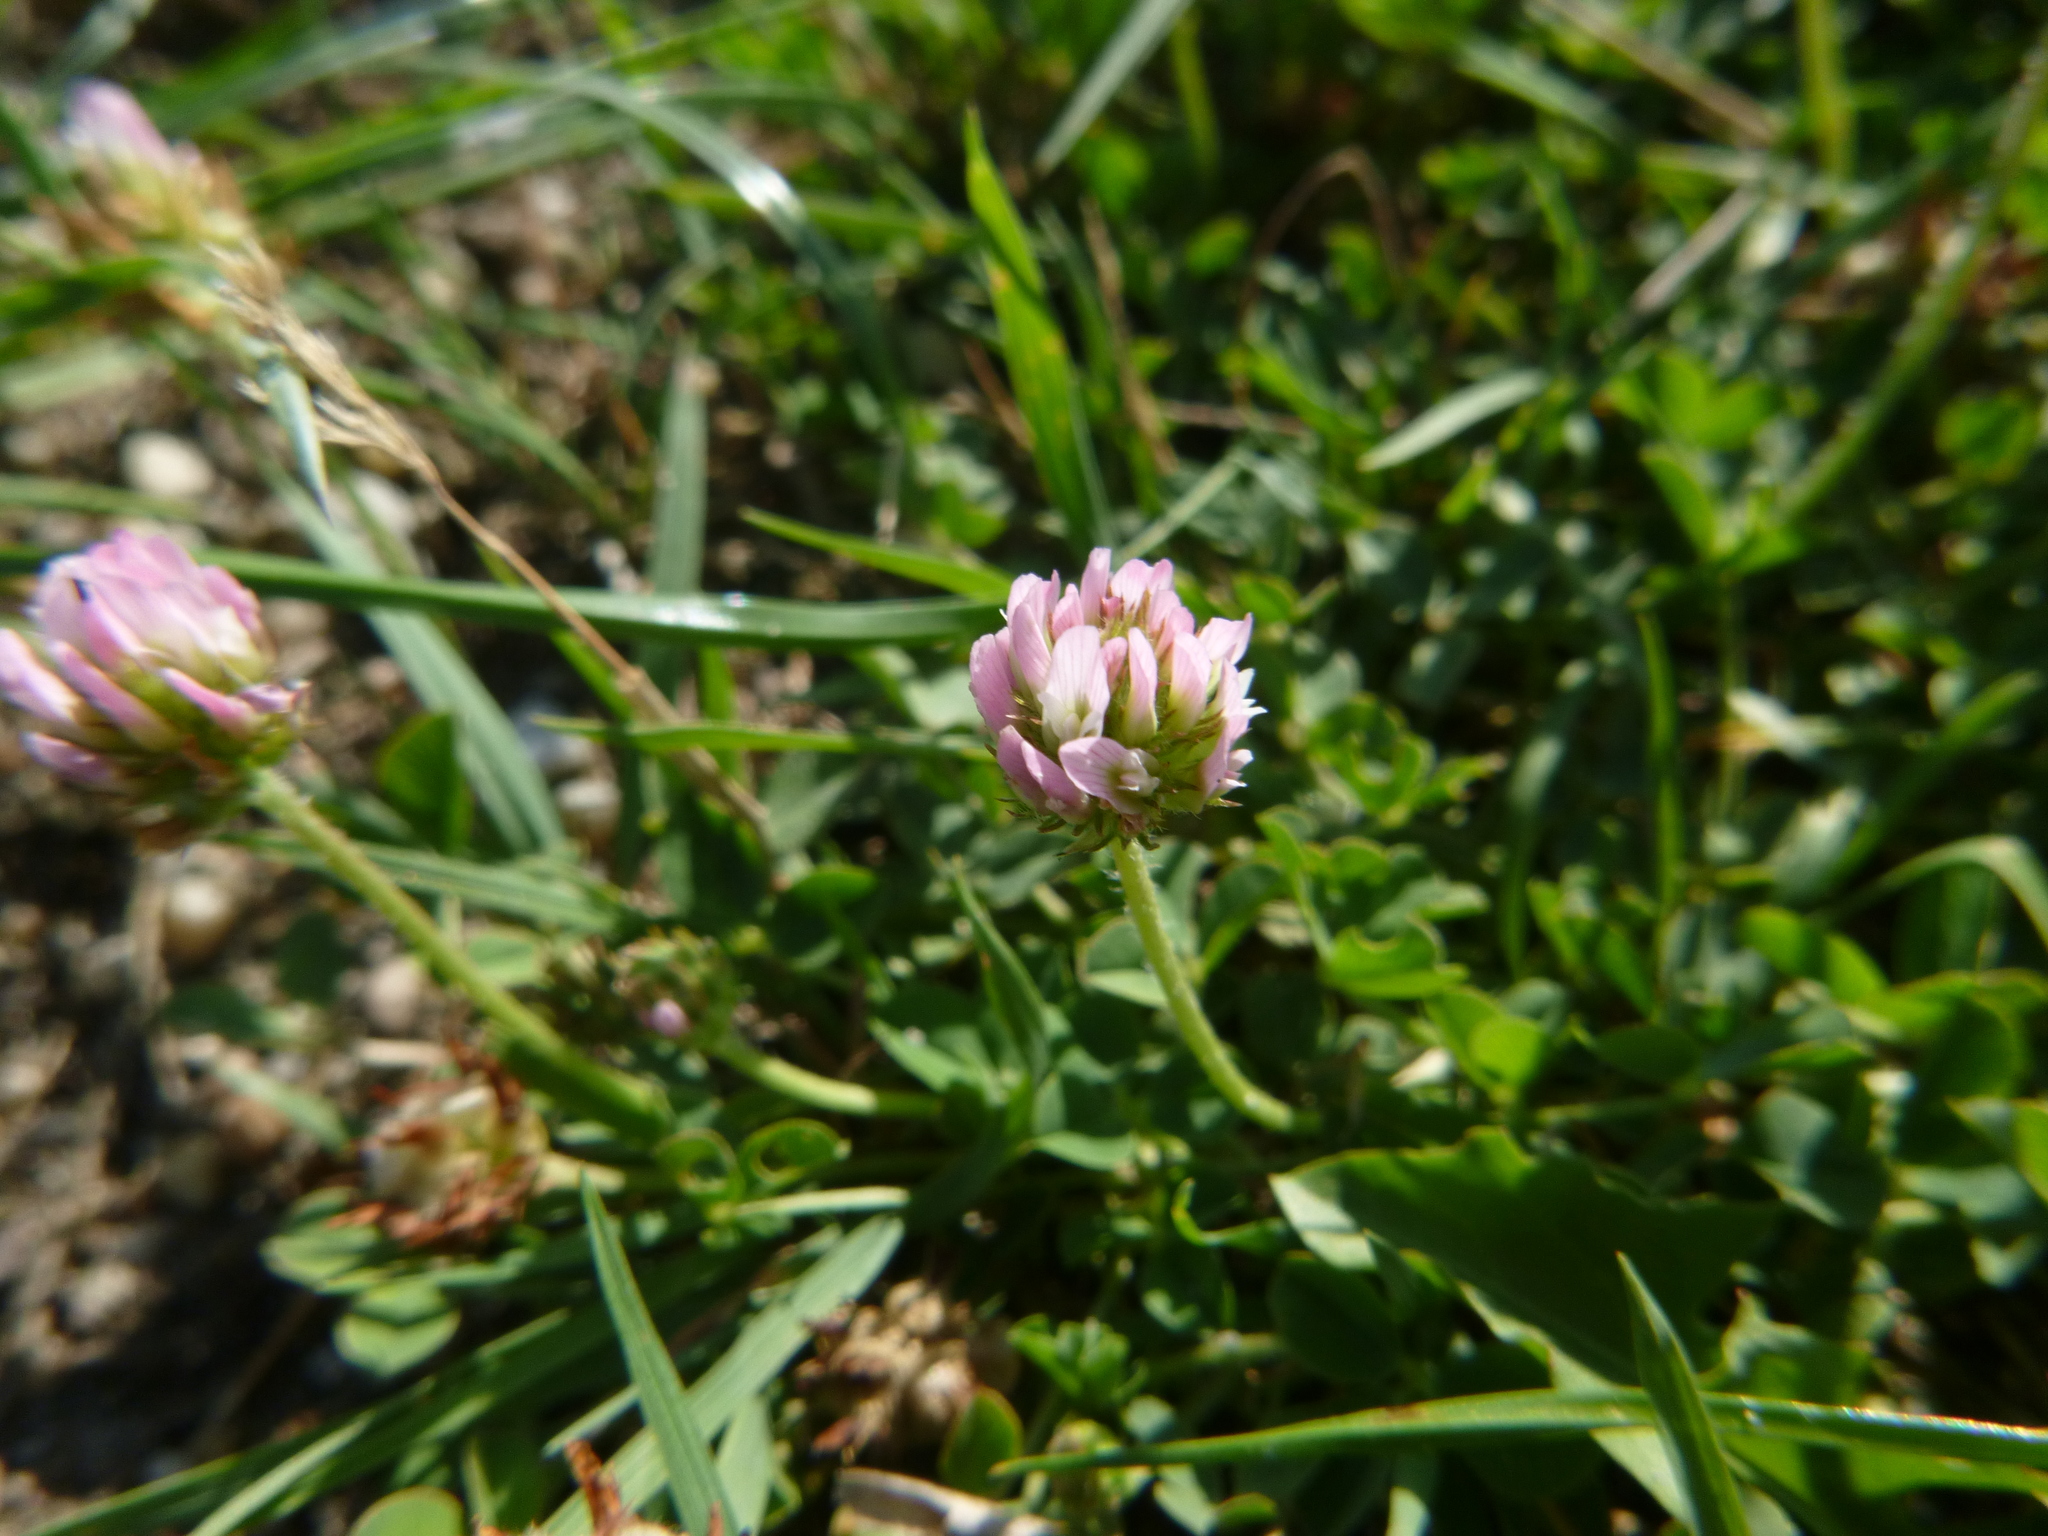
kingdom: Plantae
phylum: Tracheophyta
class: Magnoliopsida
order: Fabales
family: Fabaceae
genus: Trifolium
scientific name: Trifolium fragiferum
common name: Strawberry clover
